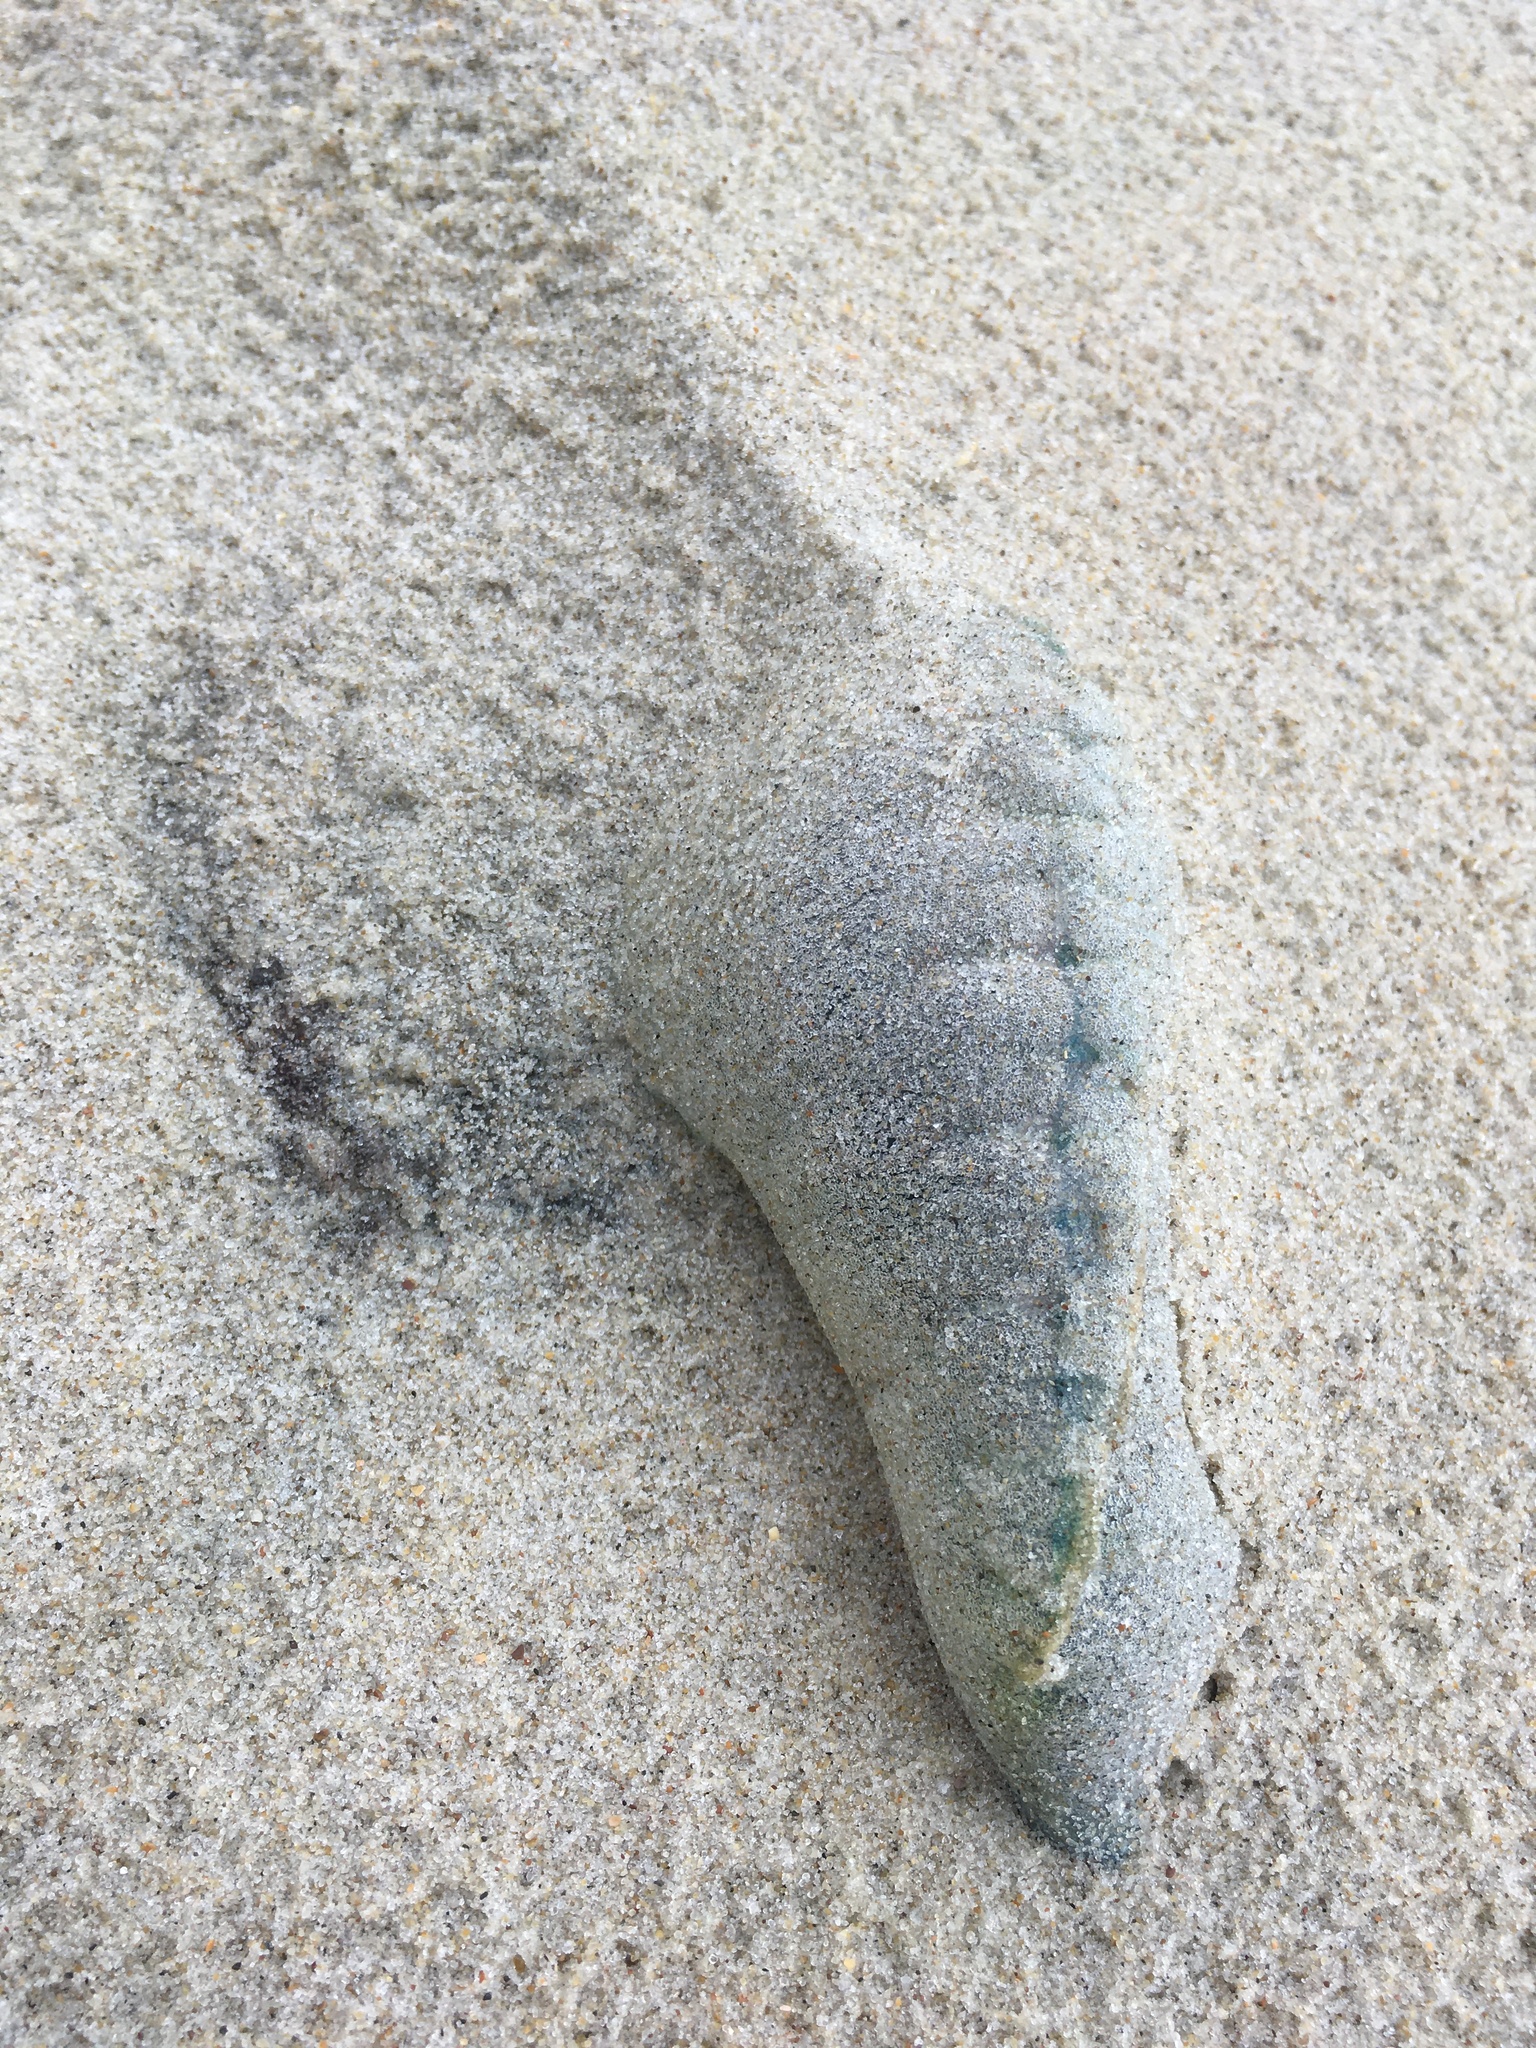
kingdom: Animalia
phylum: Cnidaria
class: Hydrozoa
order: Siphonophorae
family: Physaliidae
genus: Physalia
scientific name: Physalia physalis
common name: Portuguese man-of-war
